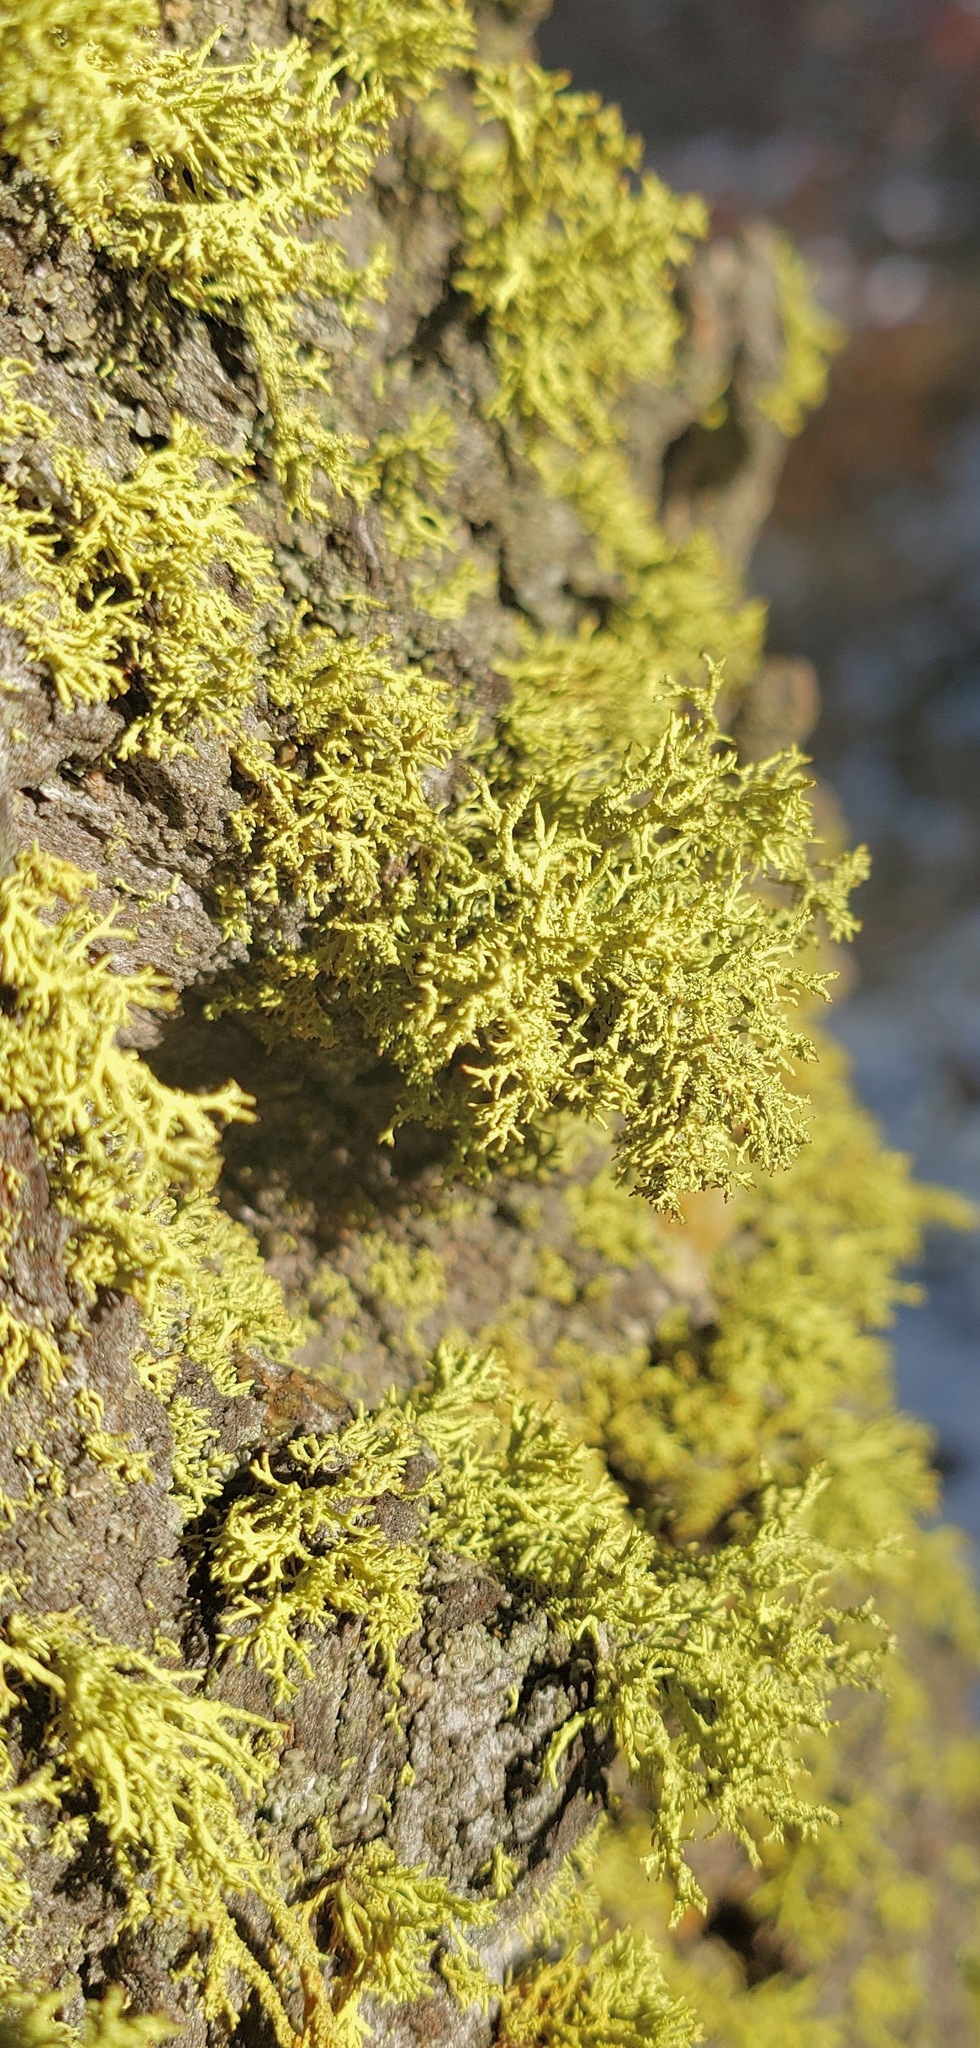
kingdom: Fungi
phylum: Ascomycota
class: Lecanoromycetes
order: Lecanorales
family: Parmeliaceae
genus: Letharia
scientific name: Letharia vulpina
